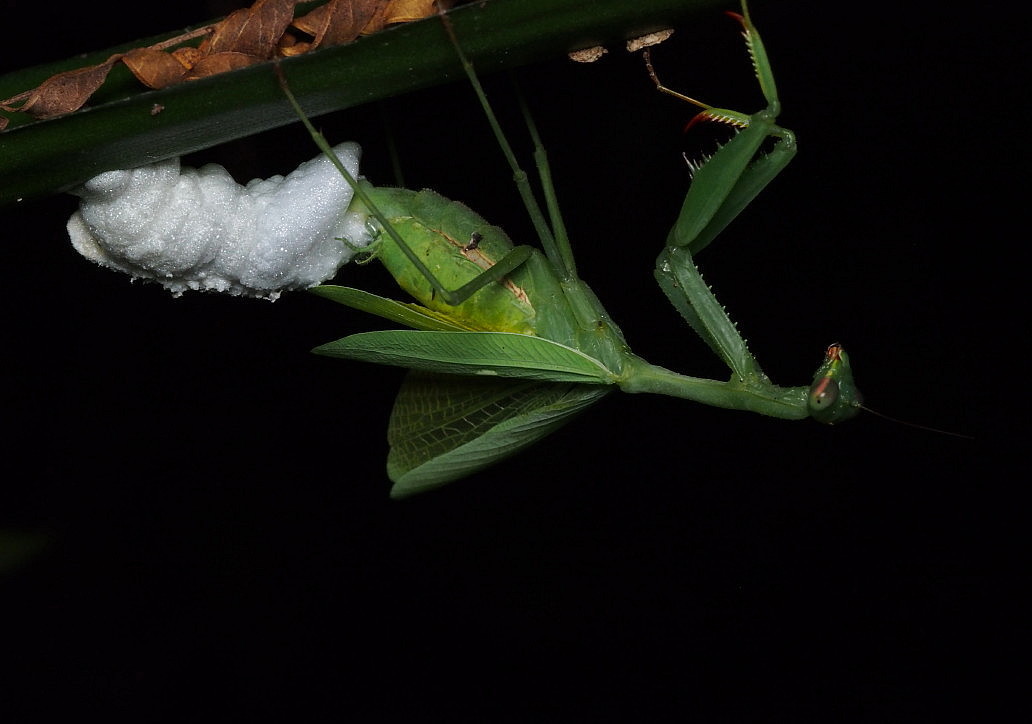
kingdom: Animalia
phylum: Arthropoda
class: Insecta
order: Mantodea
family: Miomantidae
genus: Miomantis
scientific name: Miomantis caffra
